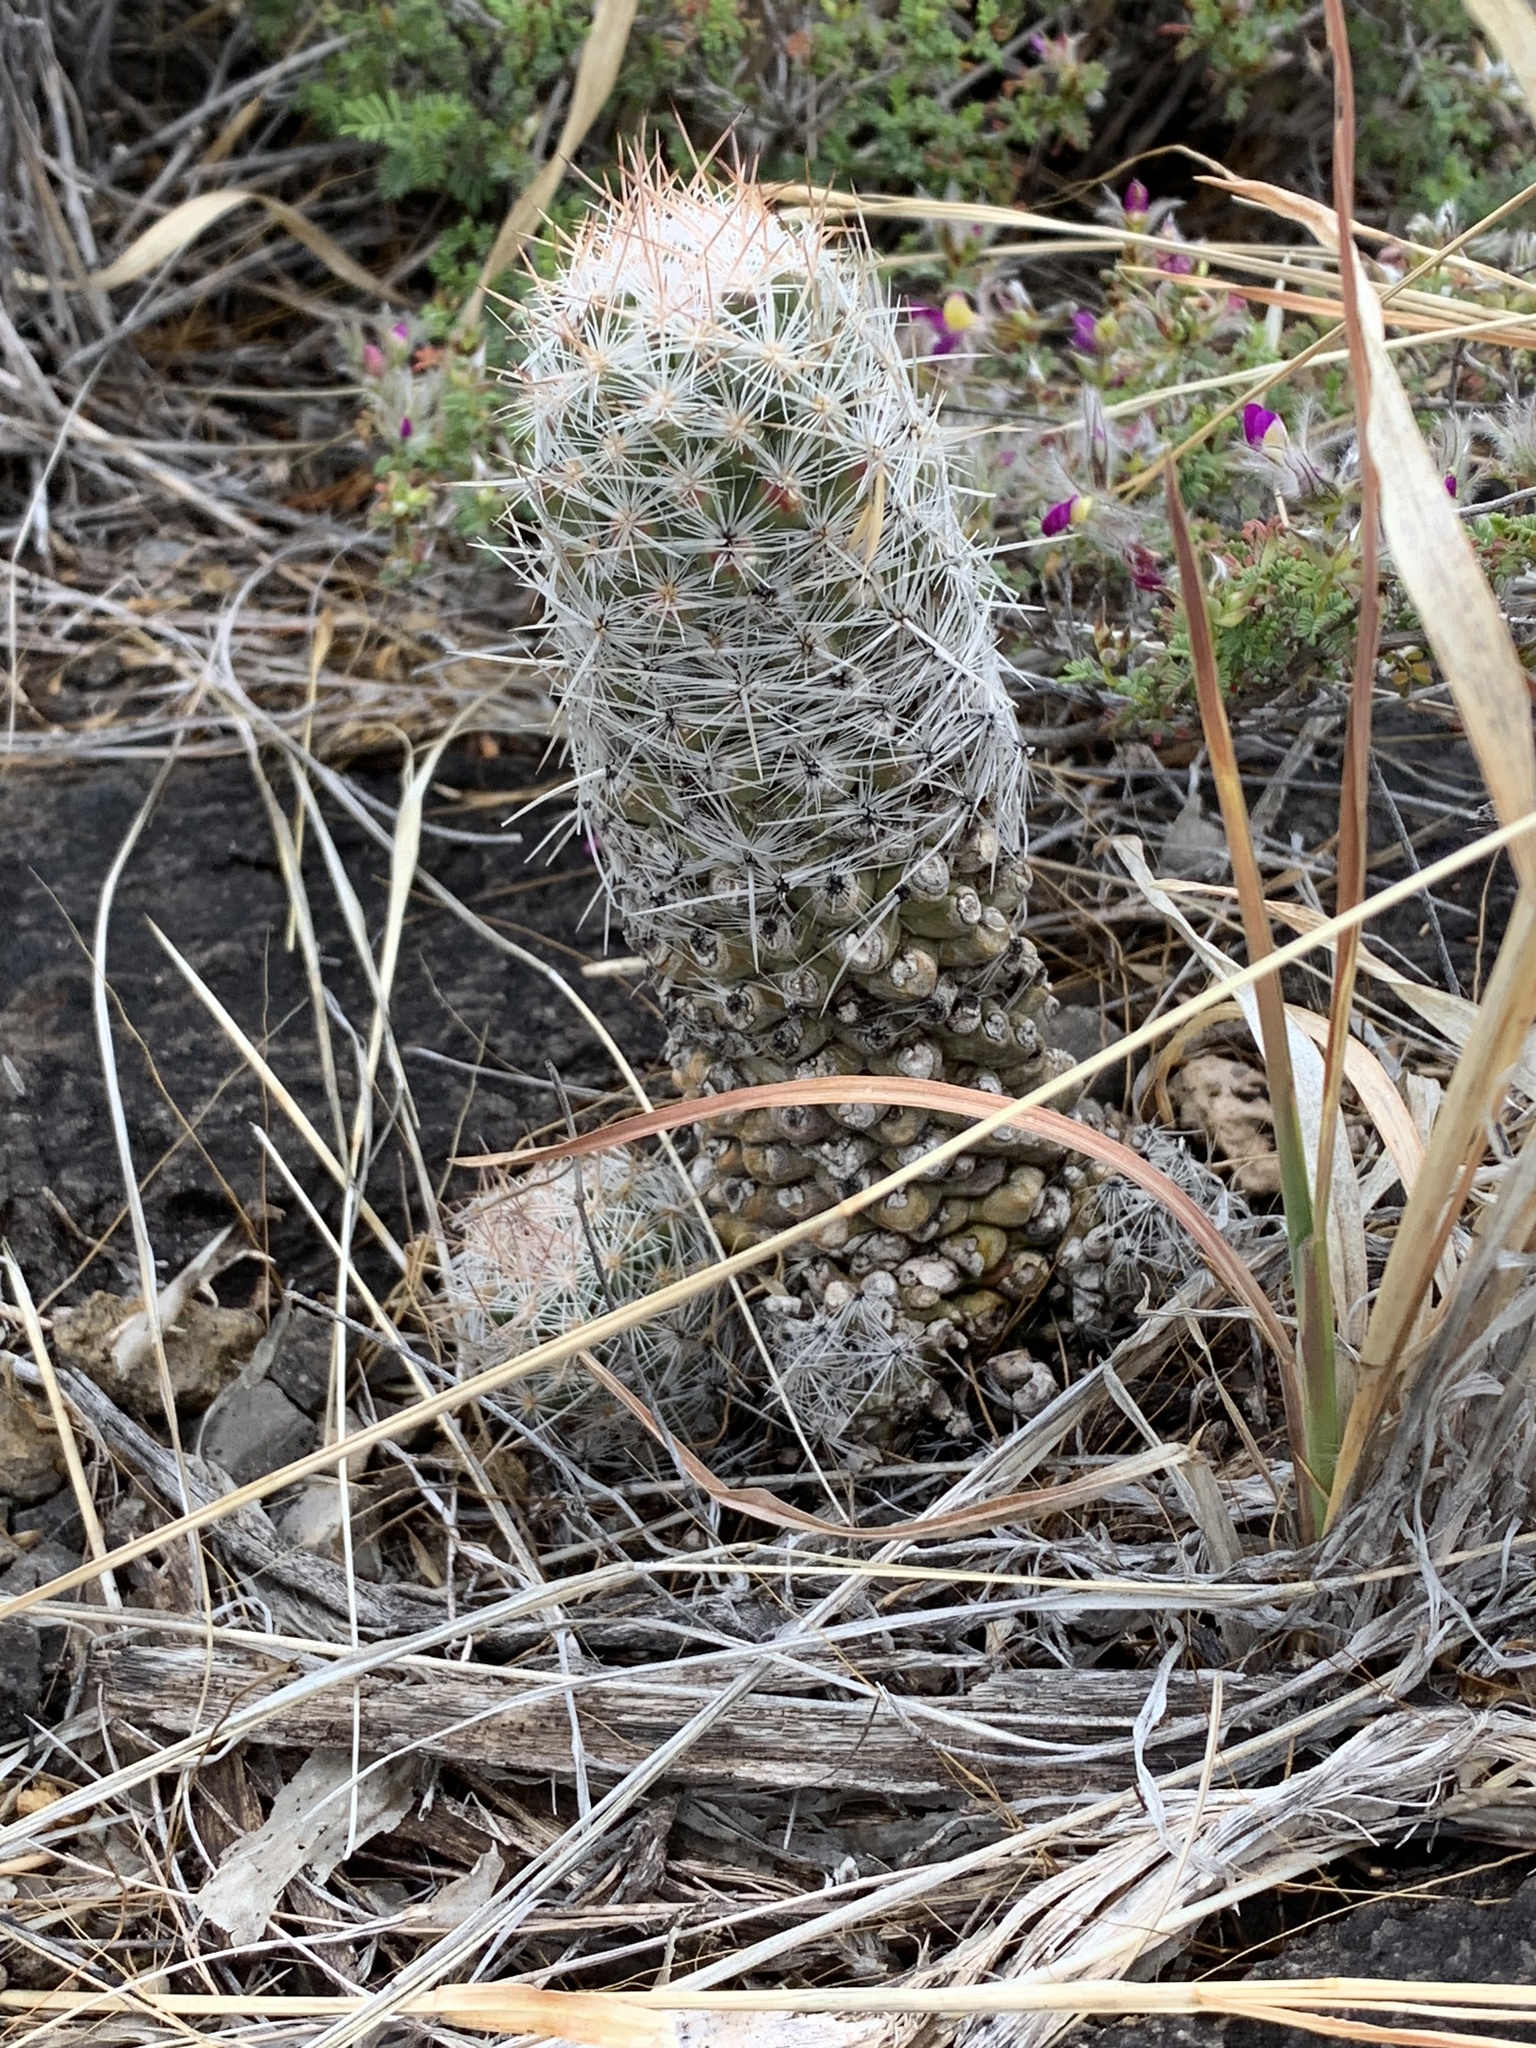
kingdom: Plantae
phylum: Tracheophyta
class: Magnoliopsida
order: Caryophyllales
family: Cactaceae
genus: Pelecyphora
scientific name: Pelecyphora tuberculosa
